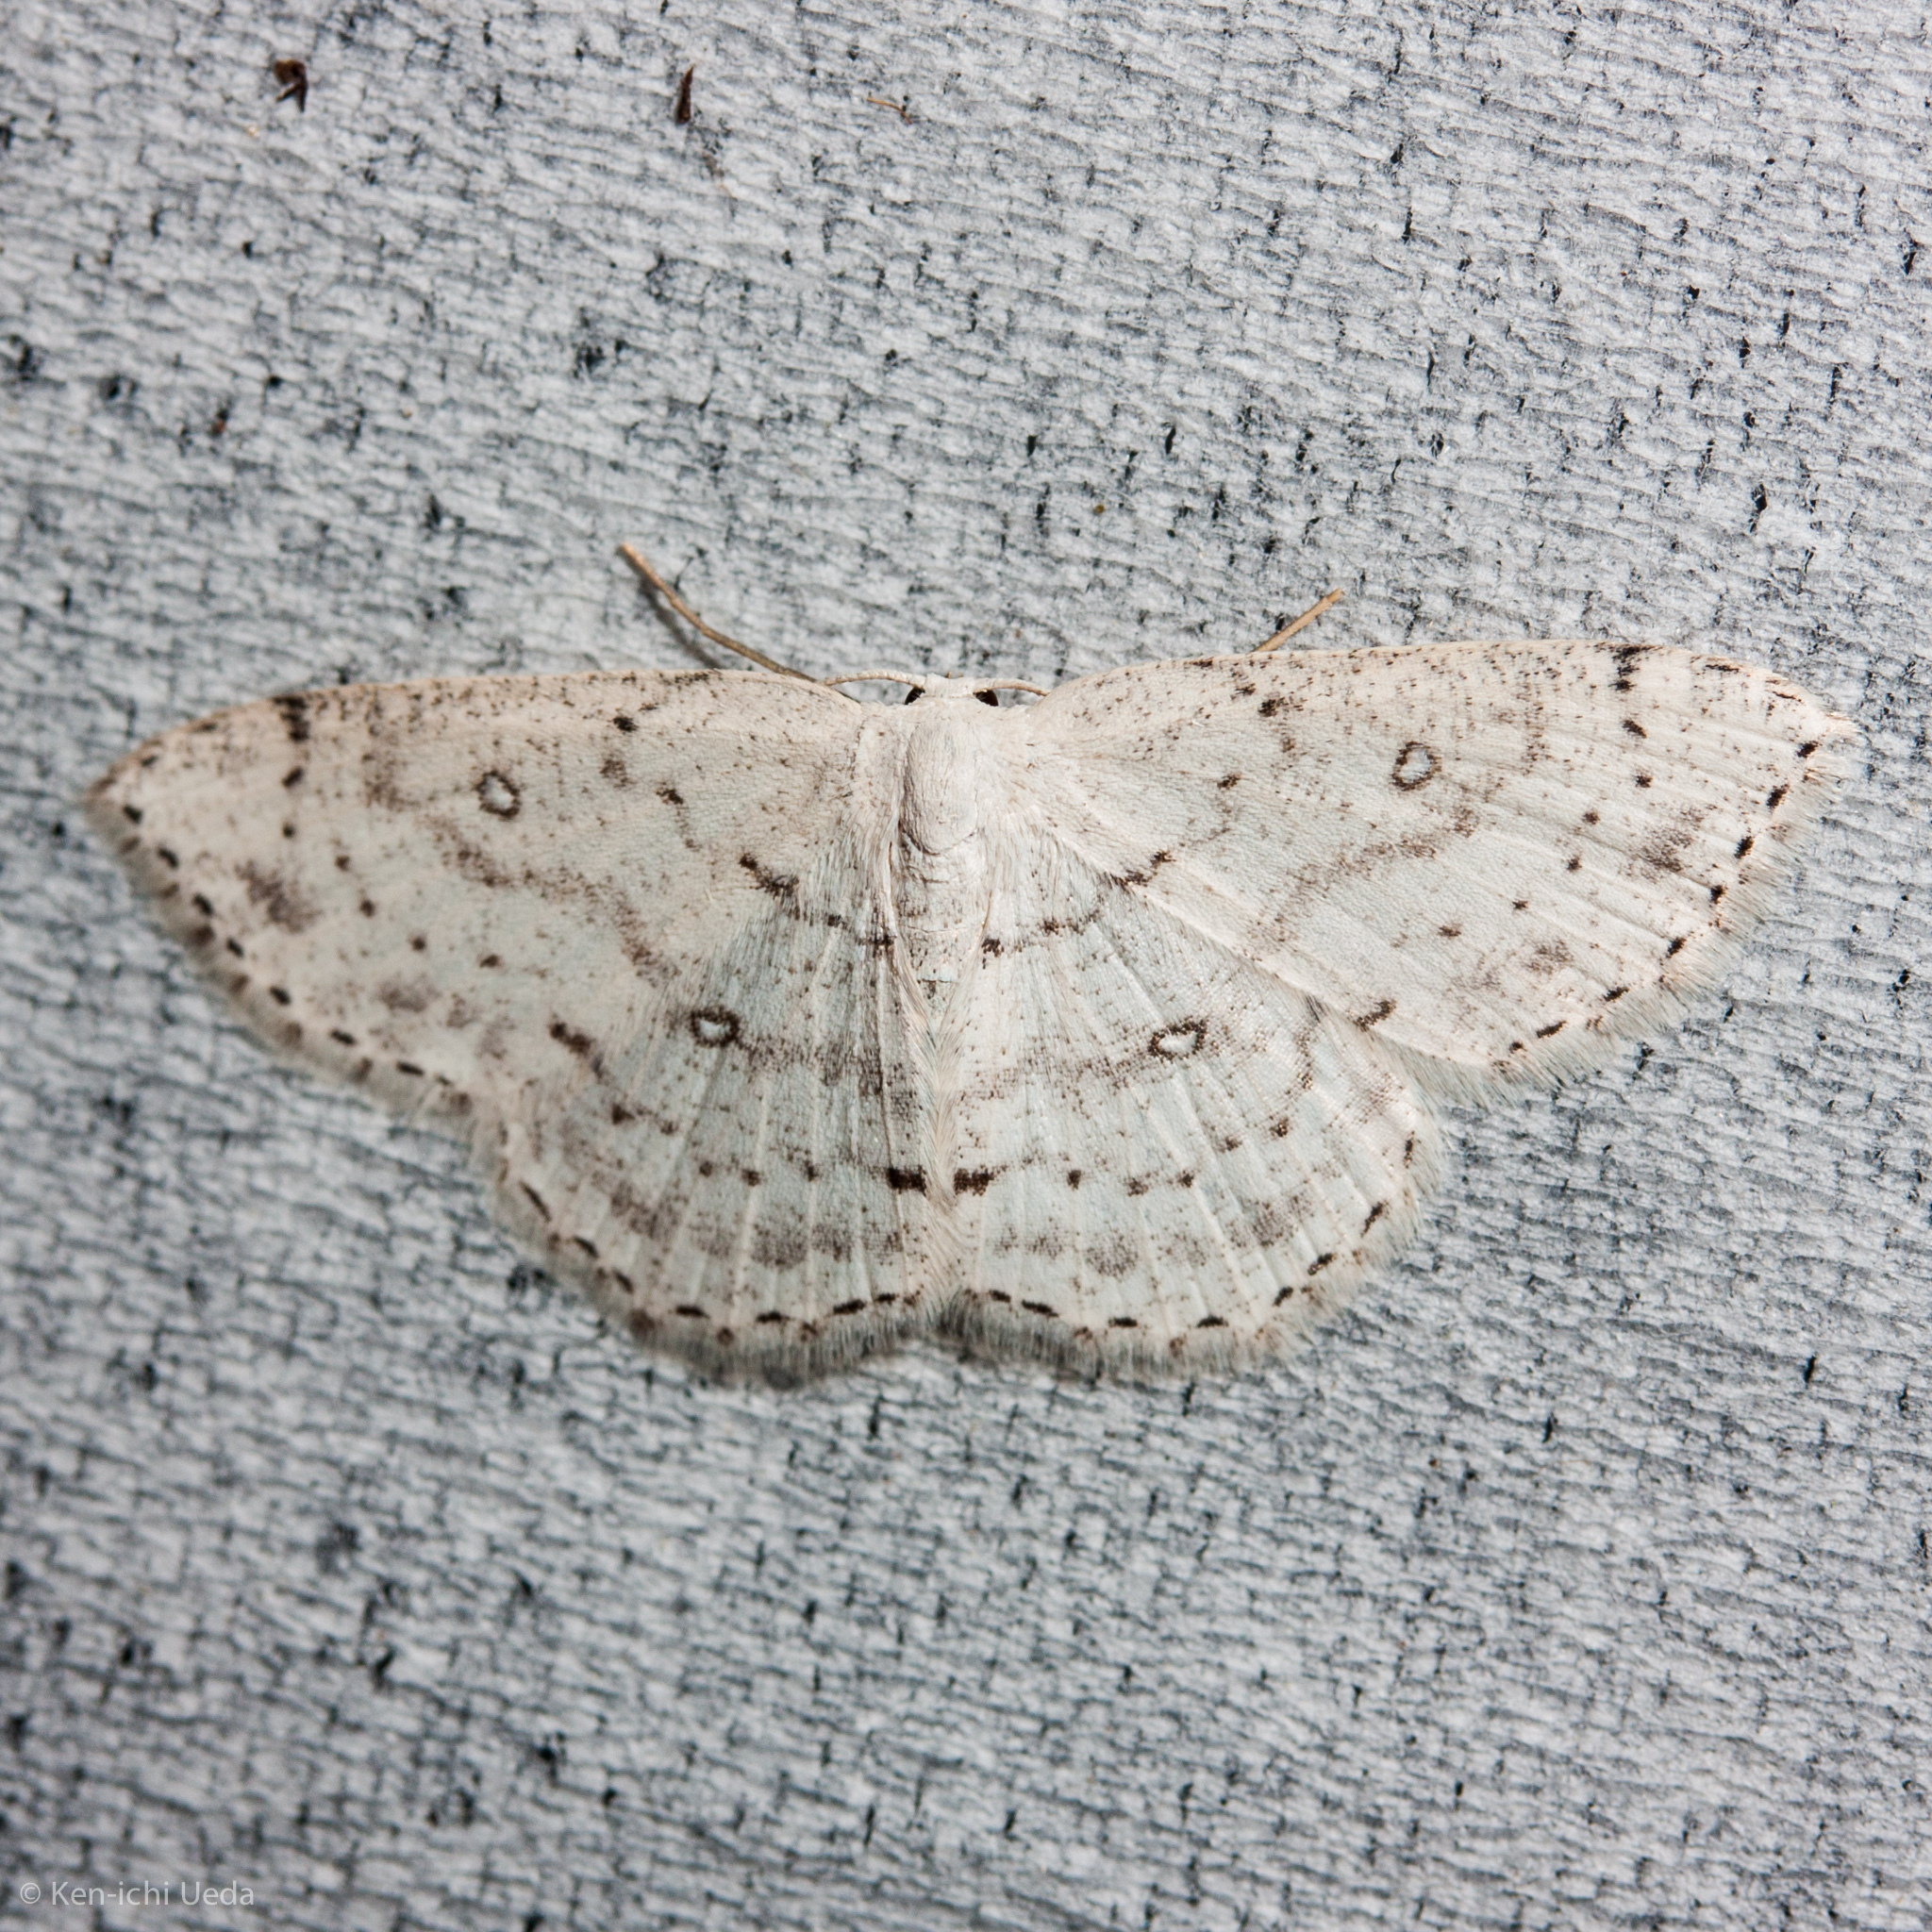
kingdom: Animalia
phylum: Arthropoda
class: Insecta
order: Lepidoptera
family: Geometridae
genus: Cyclophora
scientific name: Cyclophora pendulinaria
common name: Sweet fern geometer
